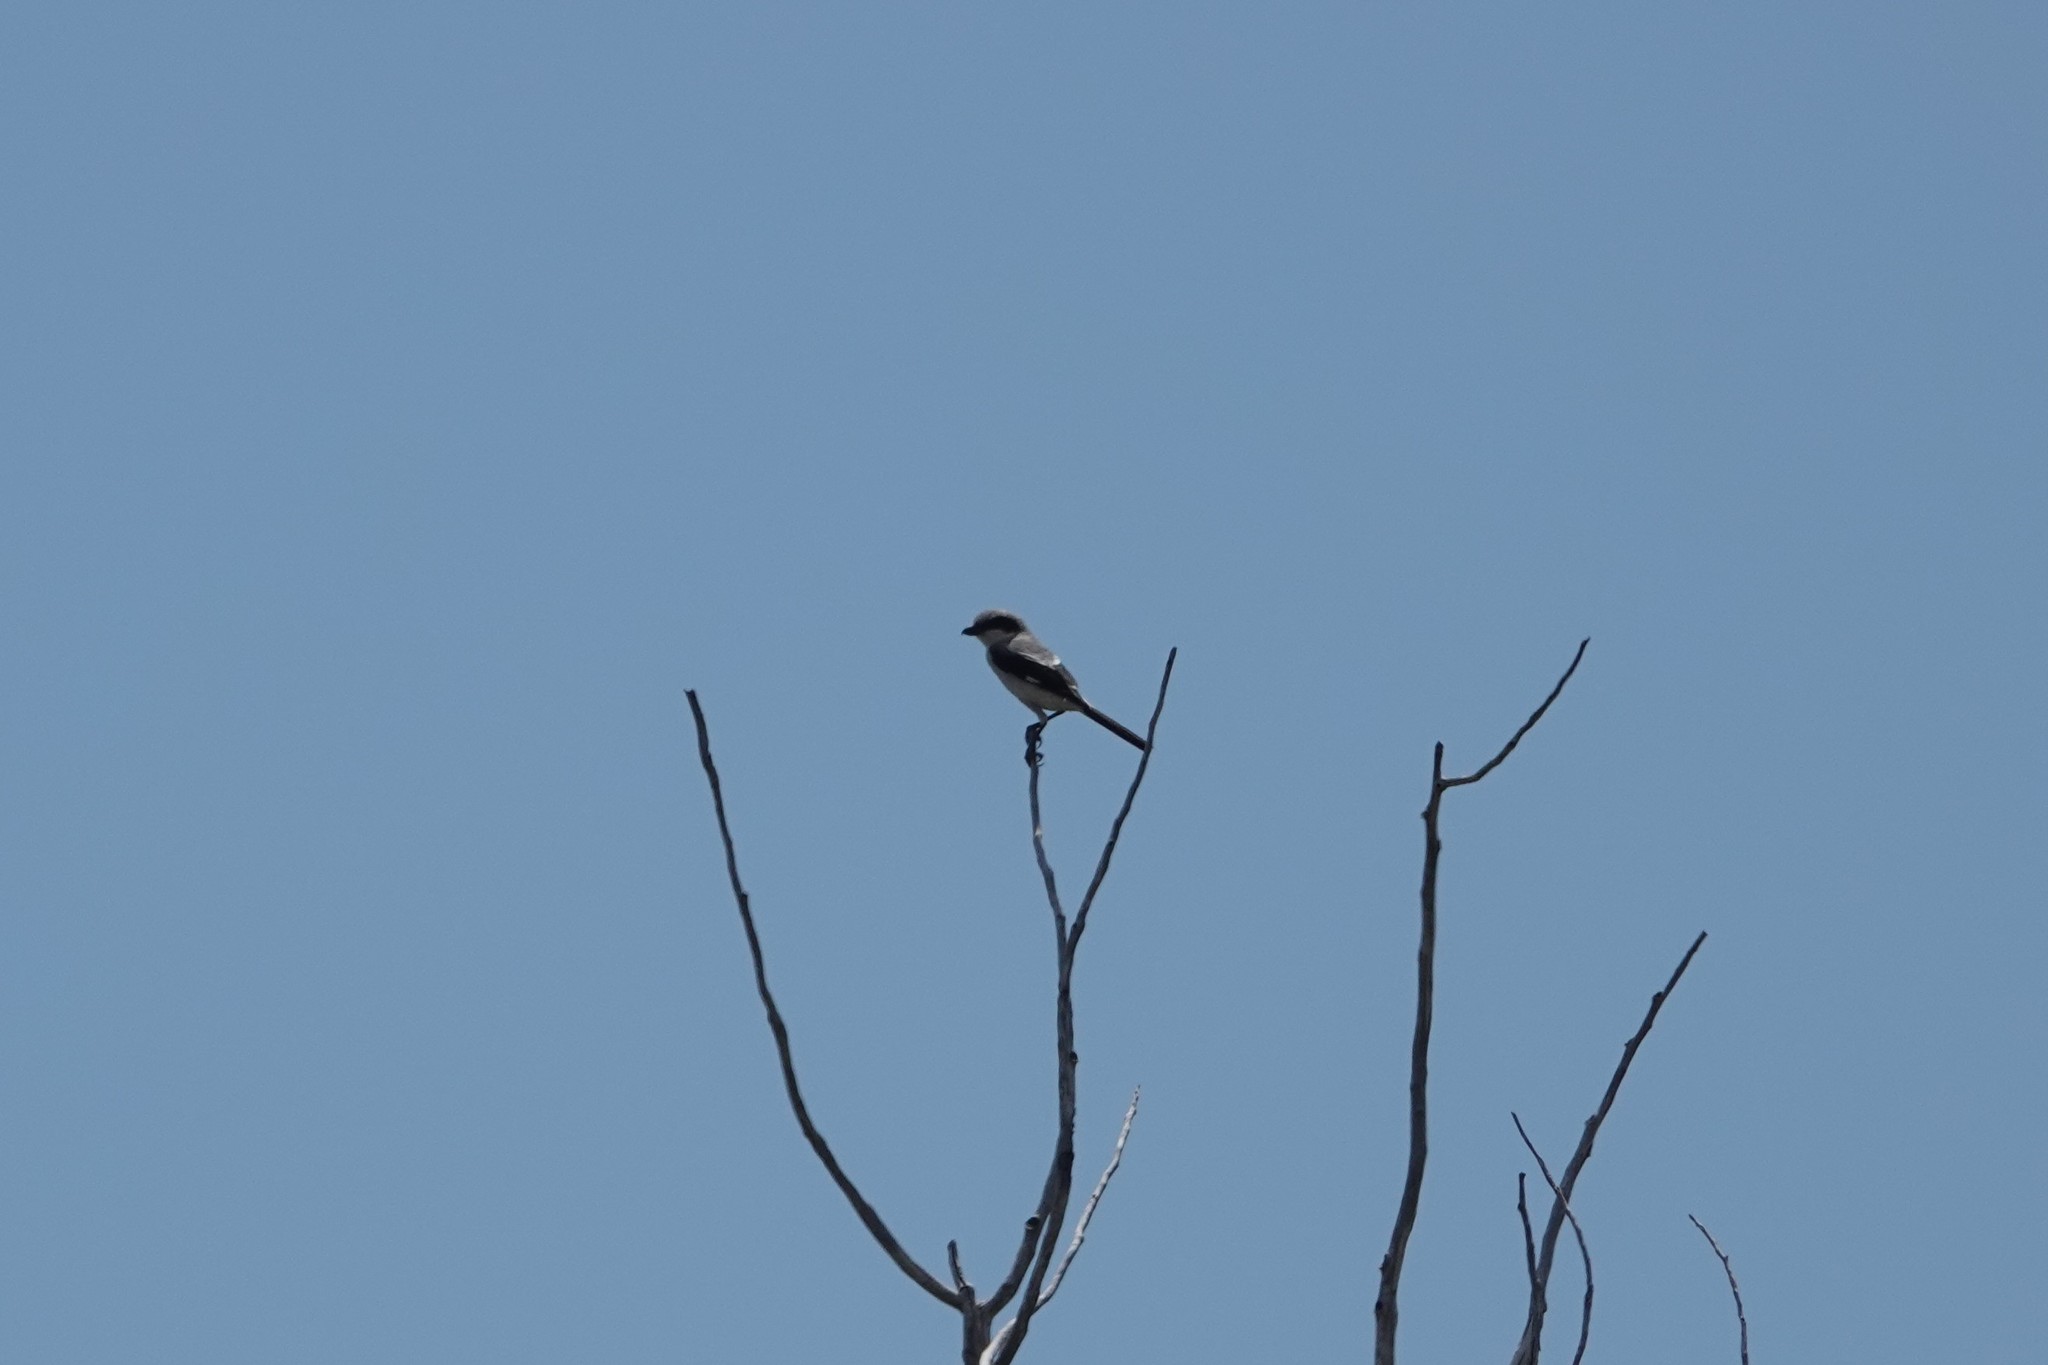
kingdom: Animalia
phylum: Chordata
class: Aves
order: Passeriformes
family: Laniidae
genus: Lanius
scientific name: Lanius ludovicianus
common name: Loggerhead shrike
